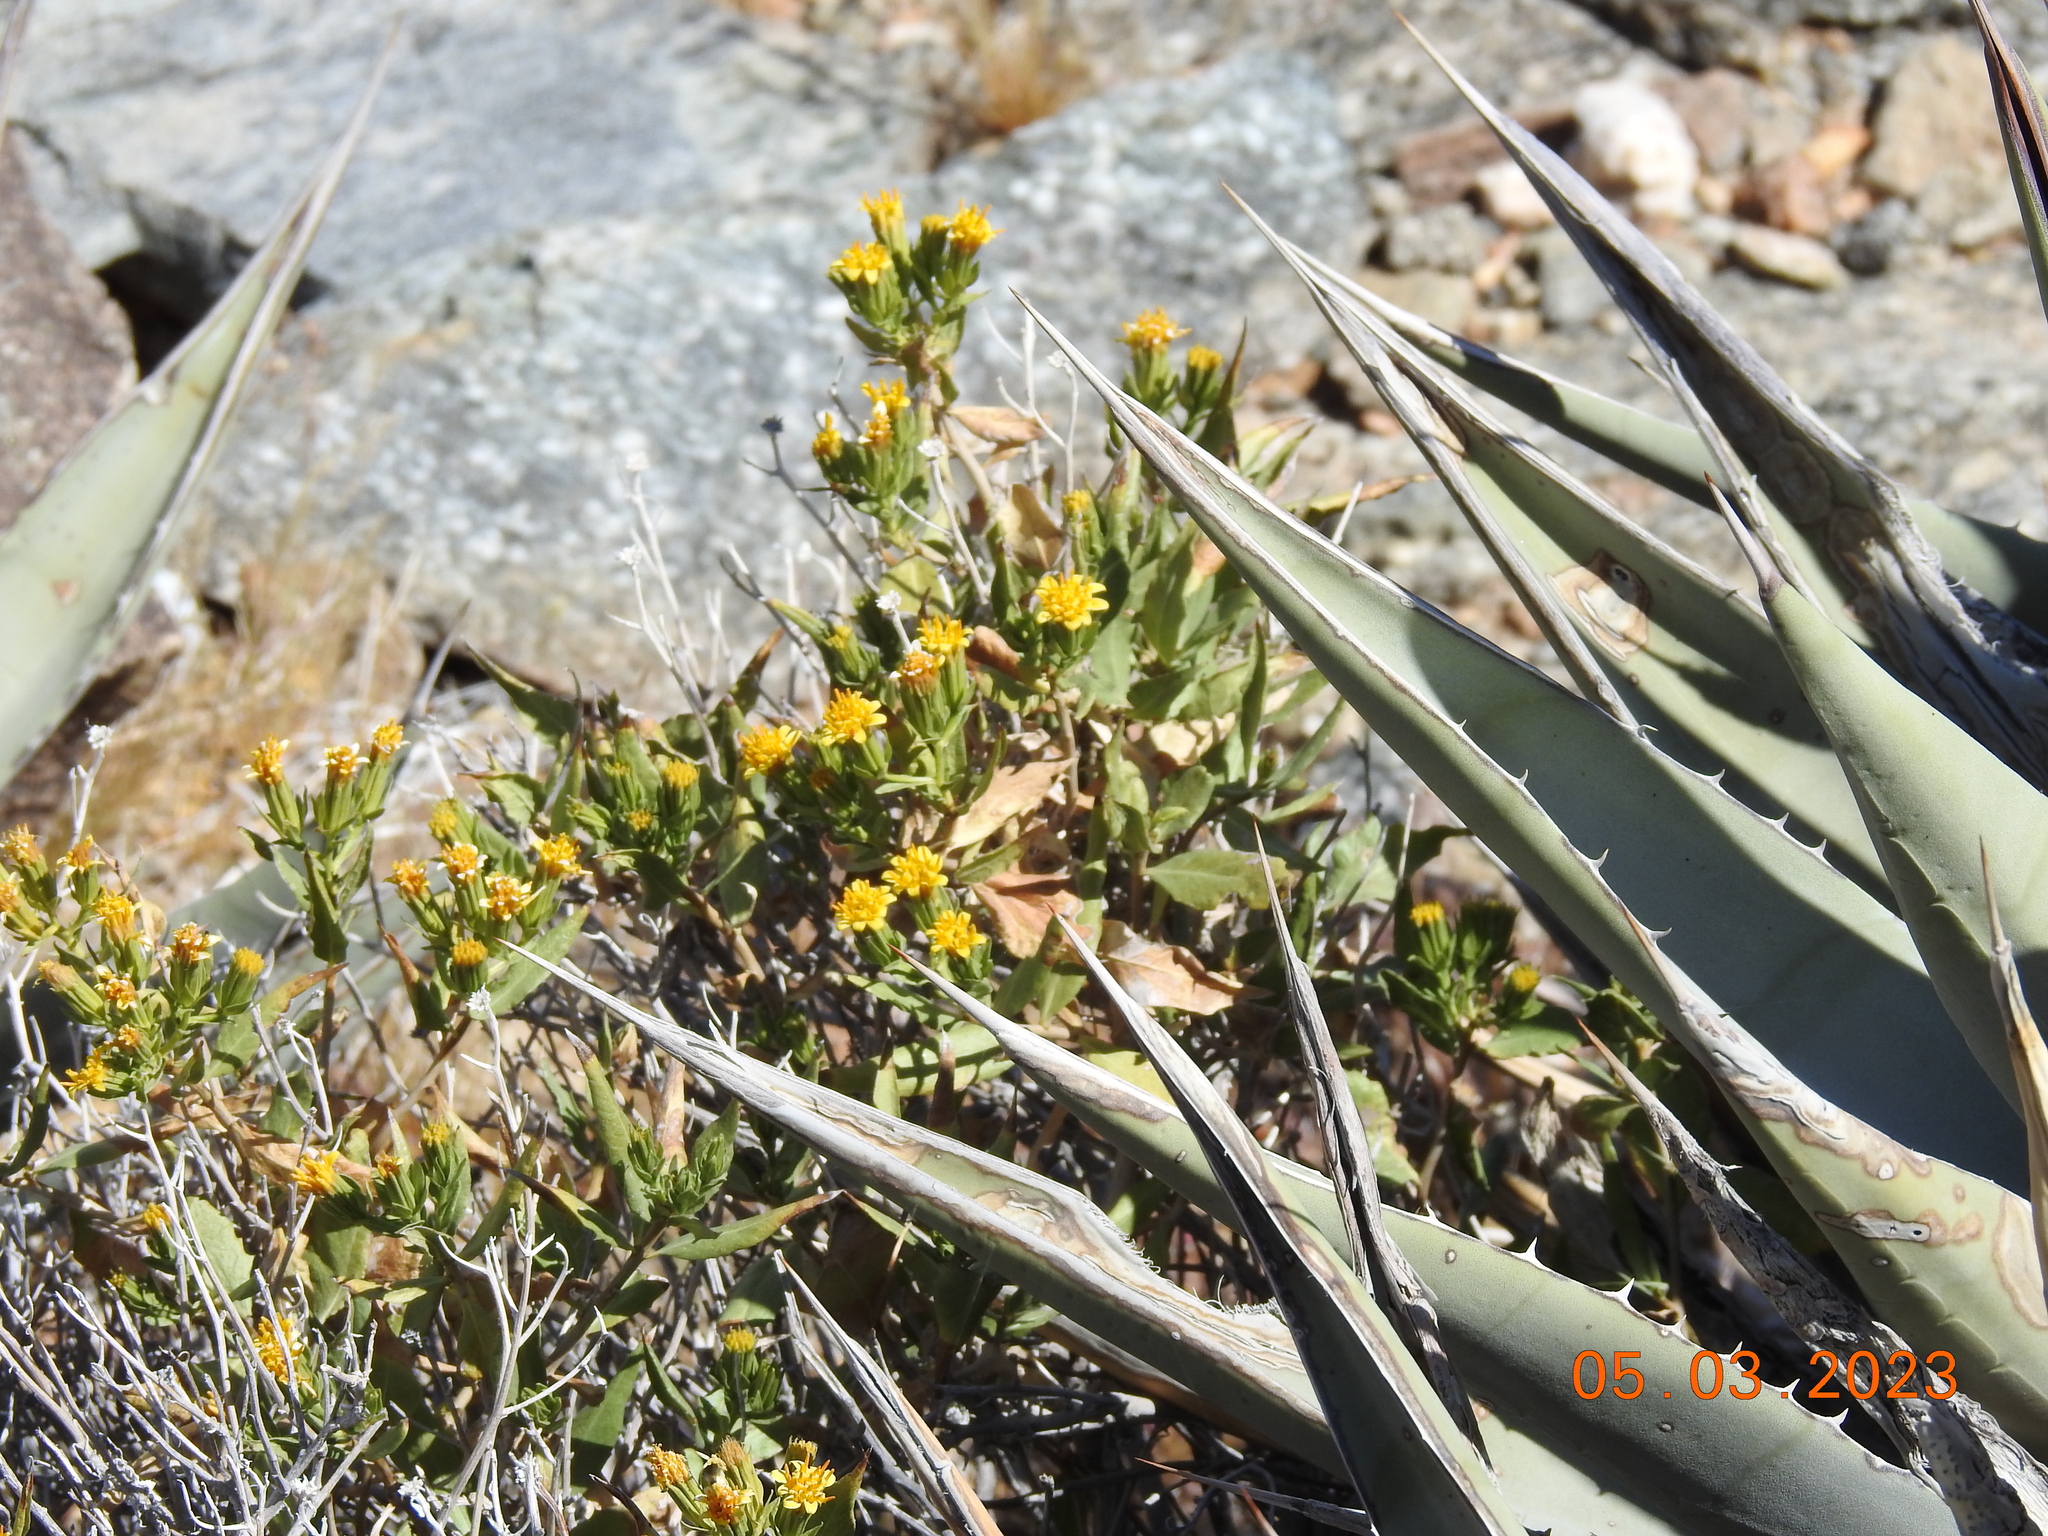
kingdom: Plantae
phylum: Tracheophyta
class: Magnoliopsida
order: Asterales
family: Asteraceae
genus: Trixis
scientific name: Trixis californica
